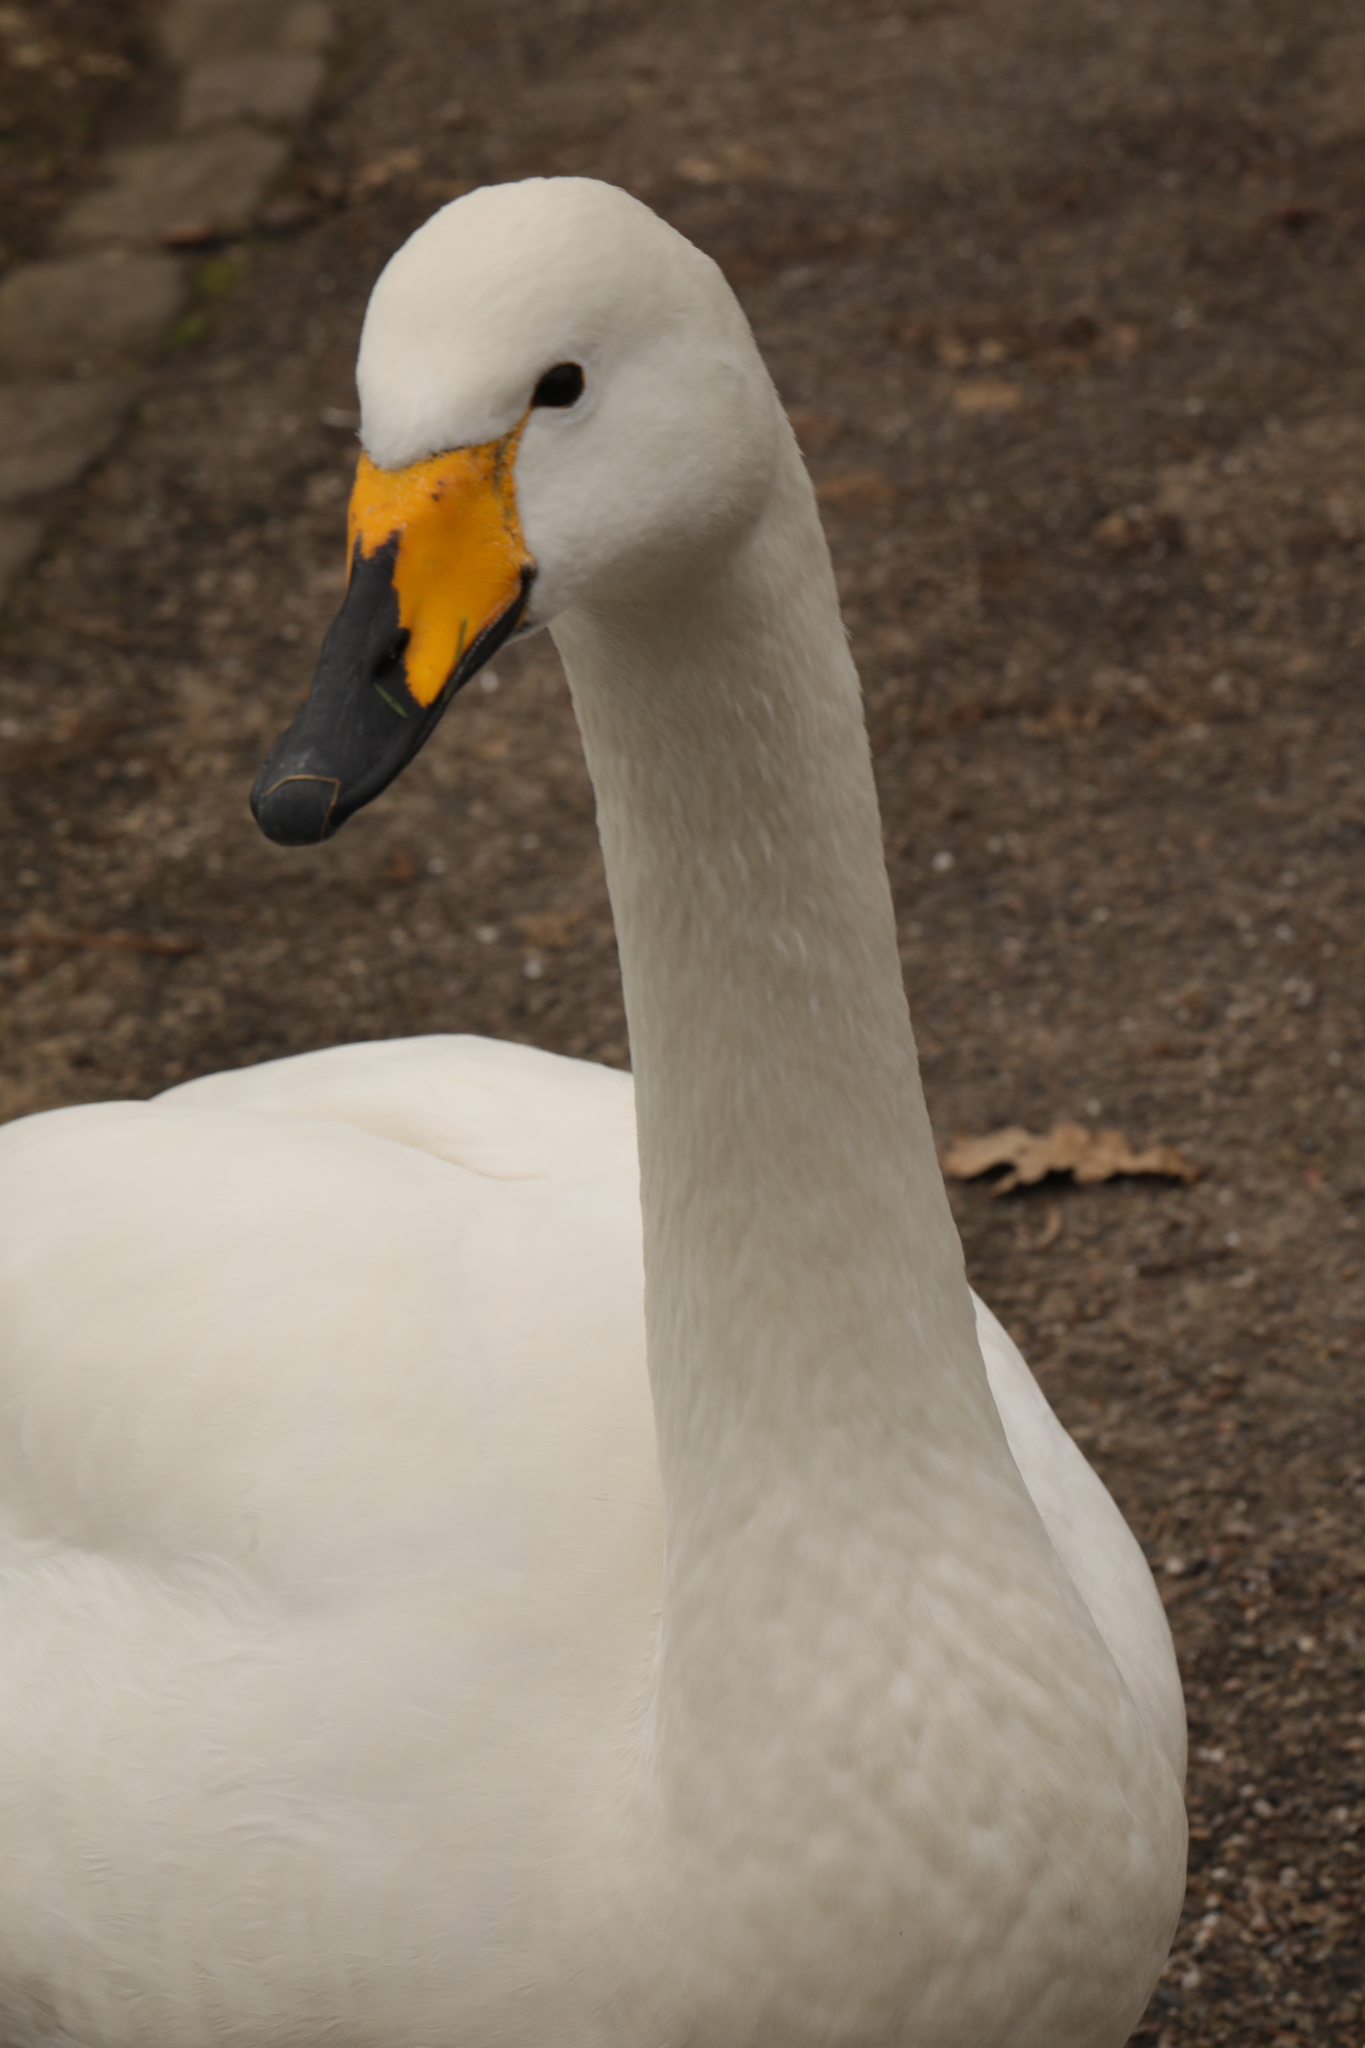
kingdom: Animalia
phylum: Chordata
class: Aves
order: Anseriformes
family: Anatidae
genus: Cygnus
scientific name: Cygnus cygnus
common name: Whooper swan
